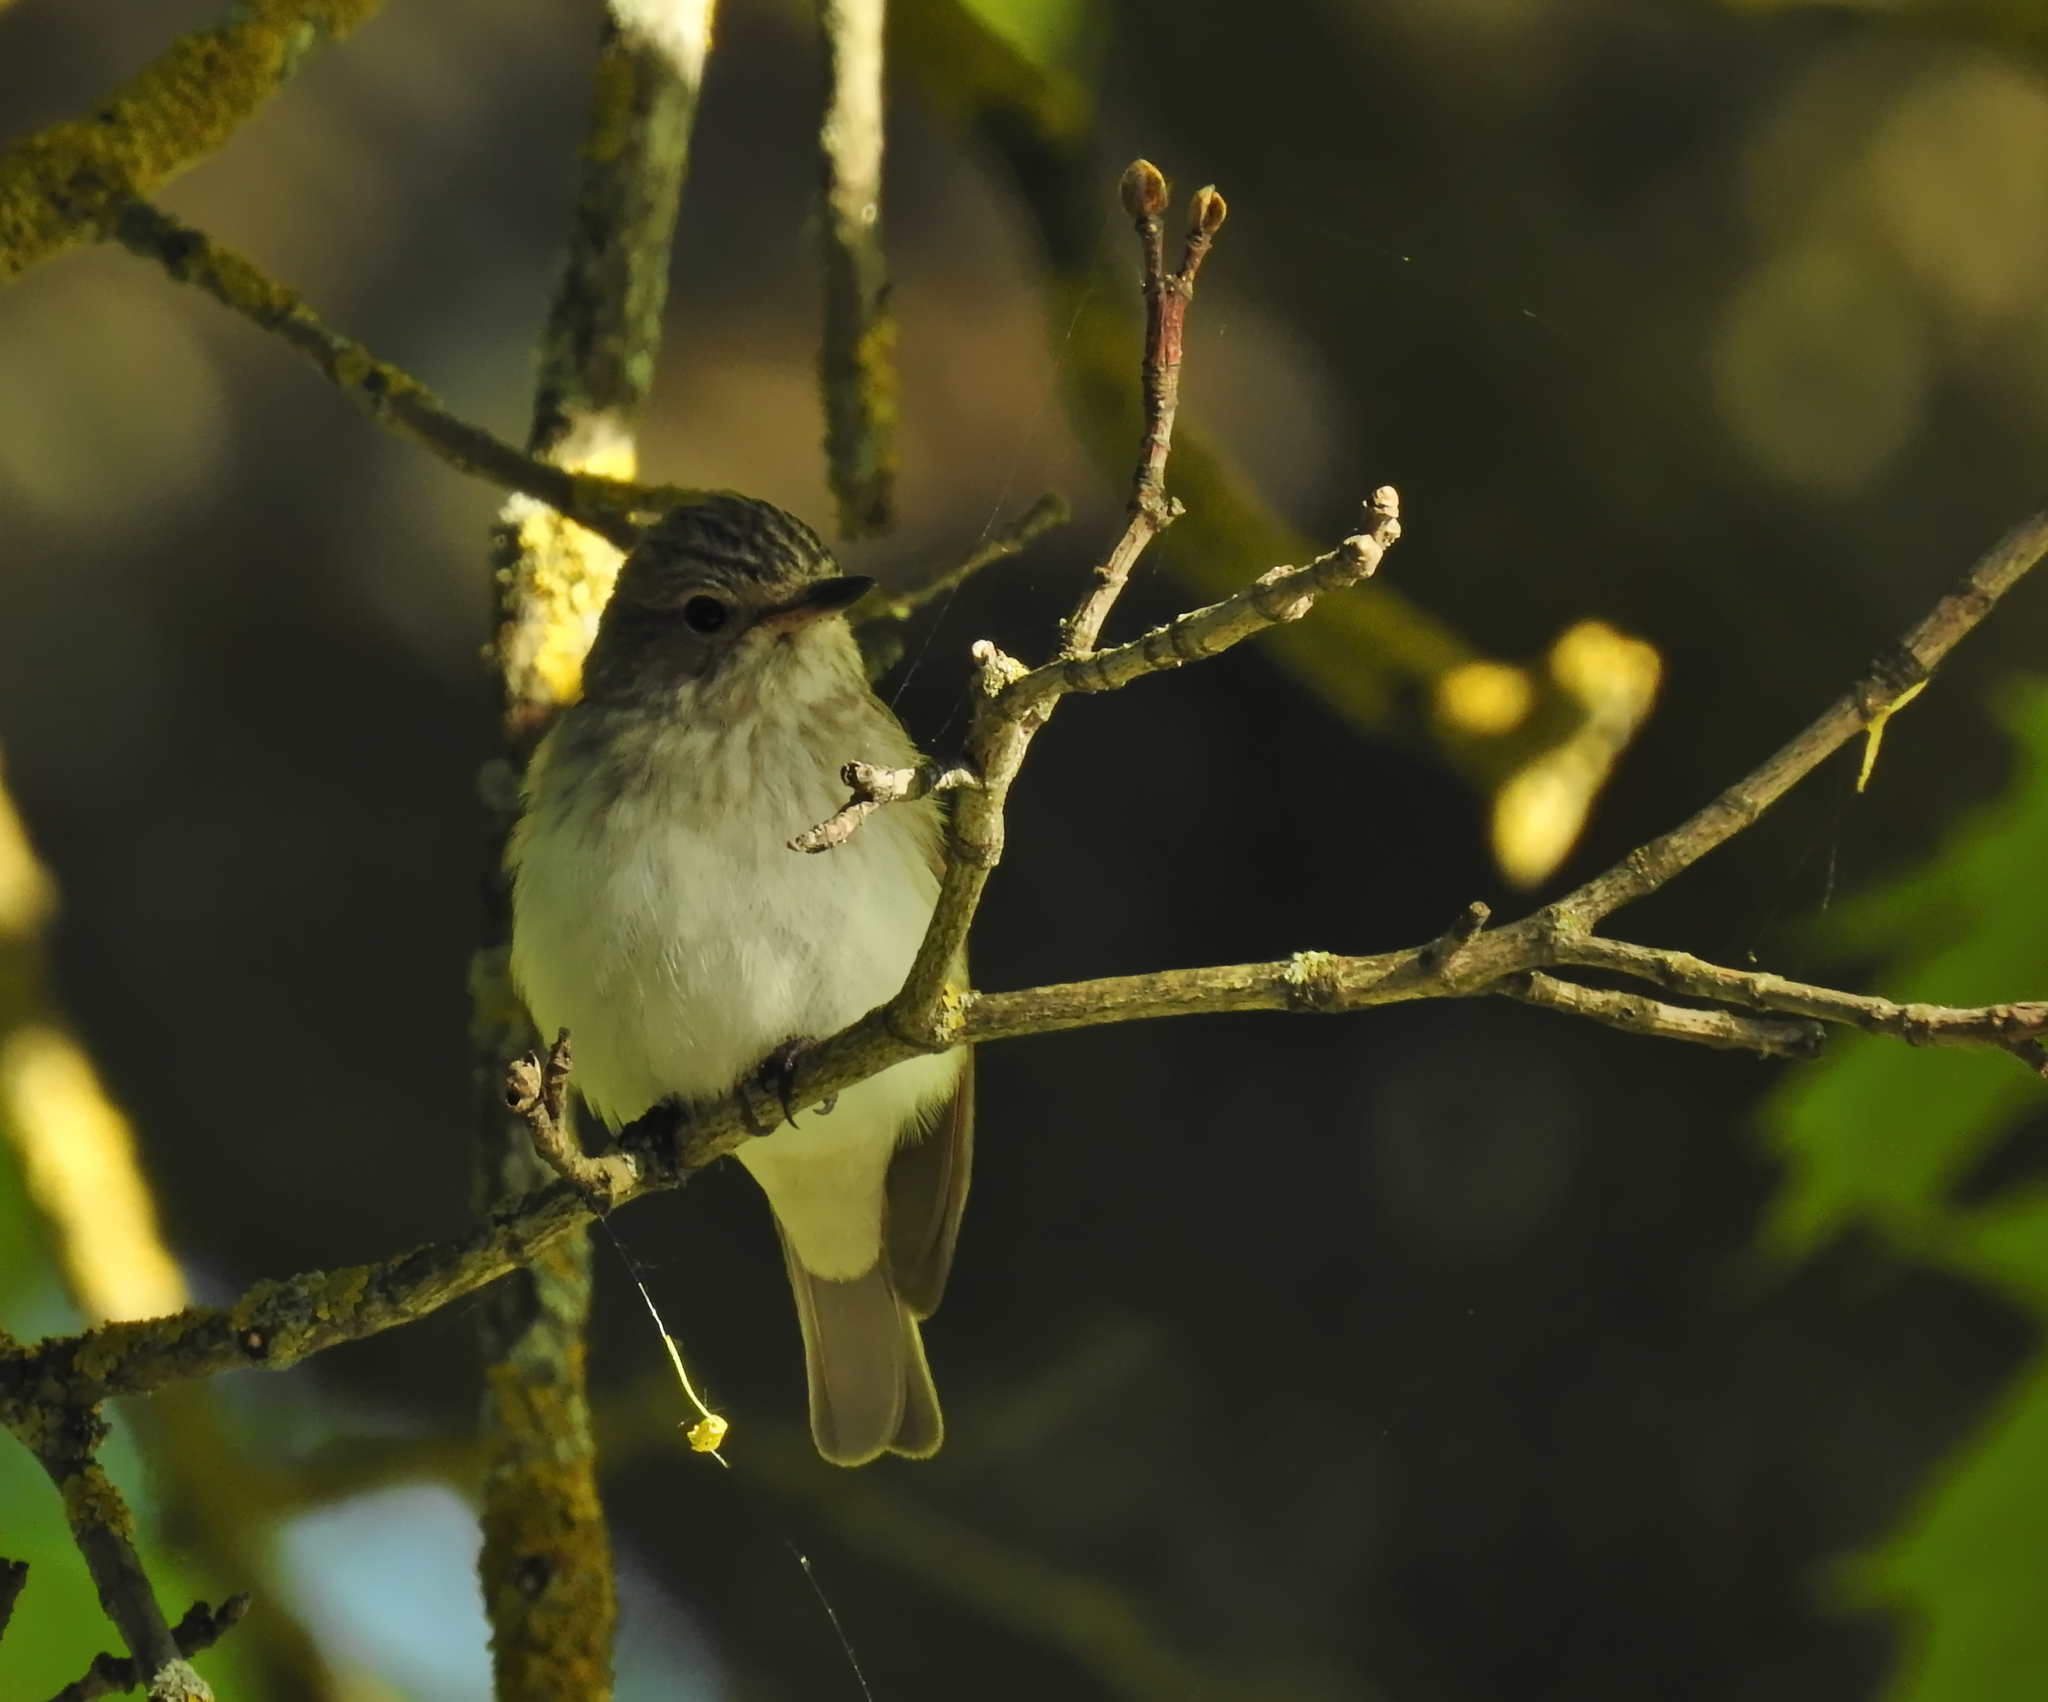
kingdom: Animalia
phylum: Chordata
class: Aves
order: Passeriformes
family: Muscicapidae
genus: Muscicapa
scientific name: Muscicapa striata
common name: Spotted flycatcher
